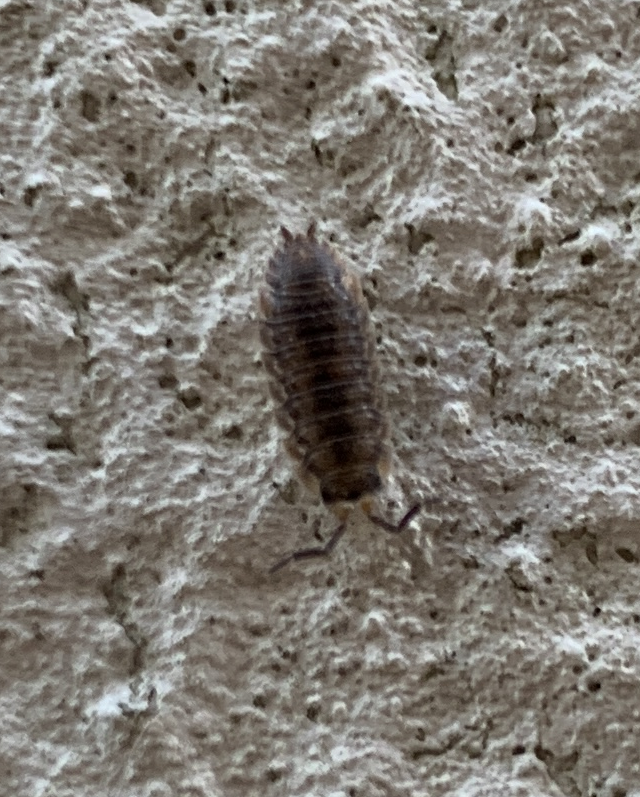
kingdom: Animalia
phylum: Arthropoda
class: Malacostraca
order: Isopoda
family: Porcellionidae
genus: Porcellio
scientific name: Porcellio scaber
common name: Common rough woodlouse
